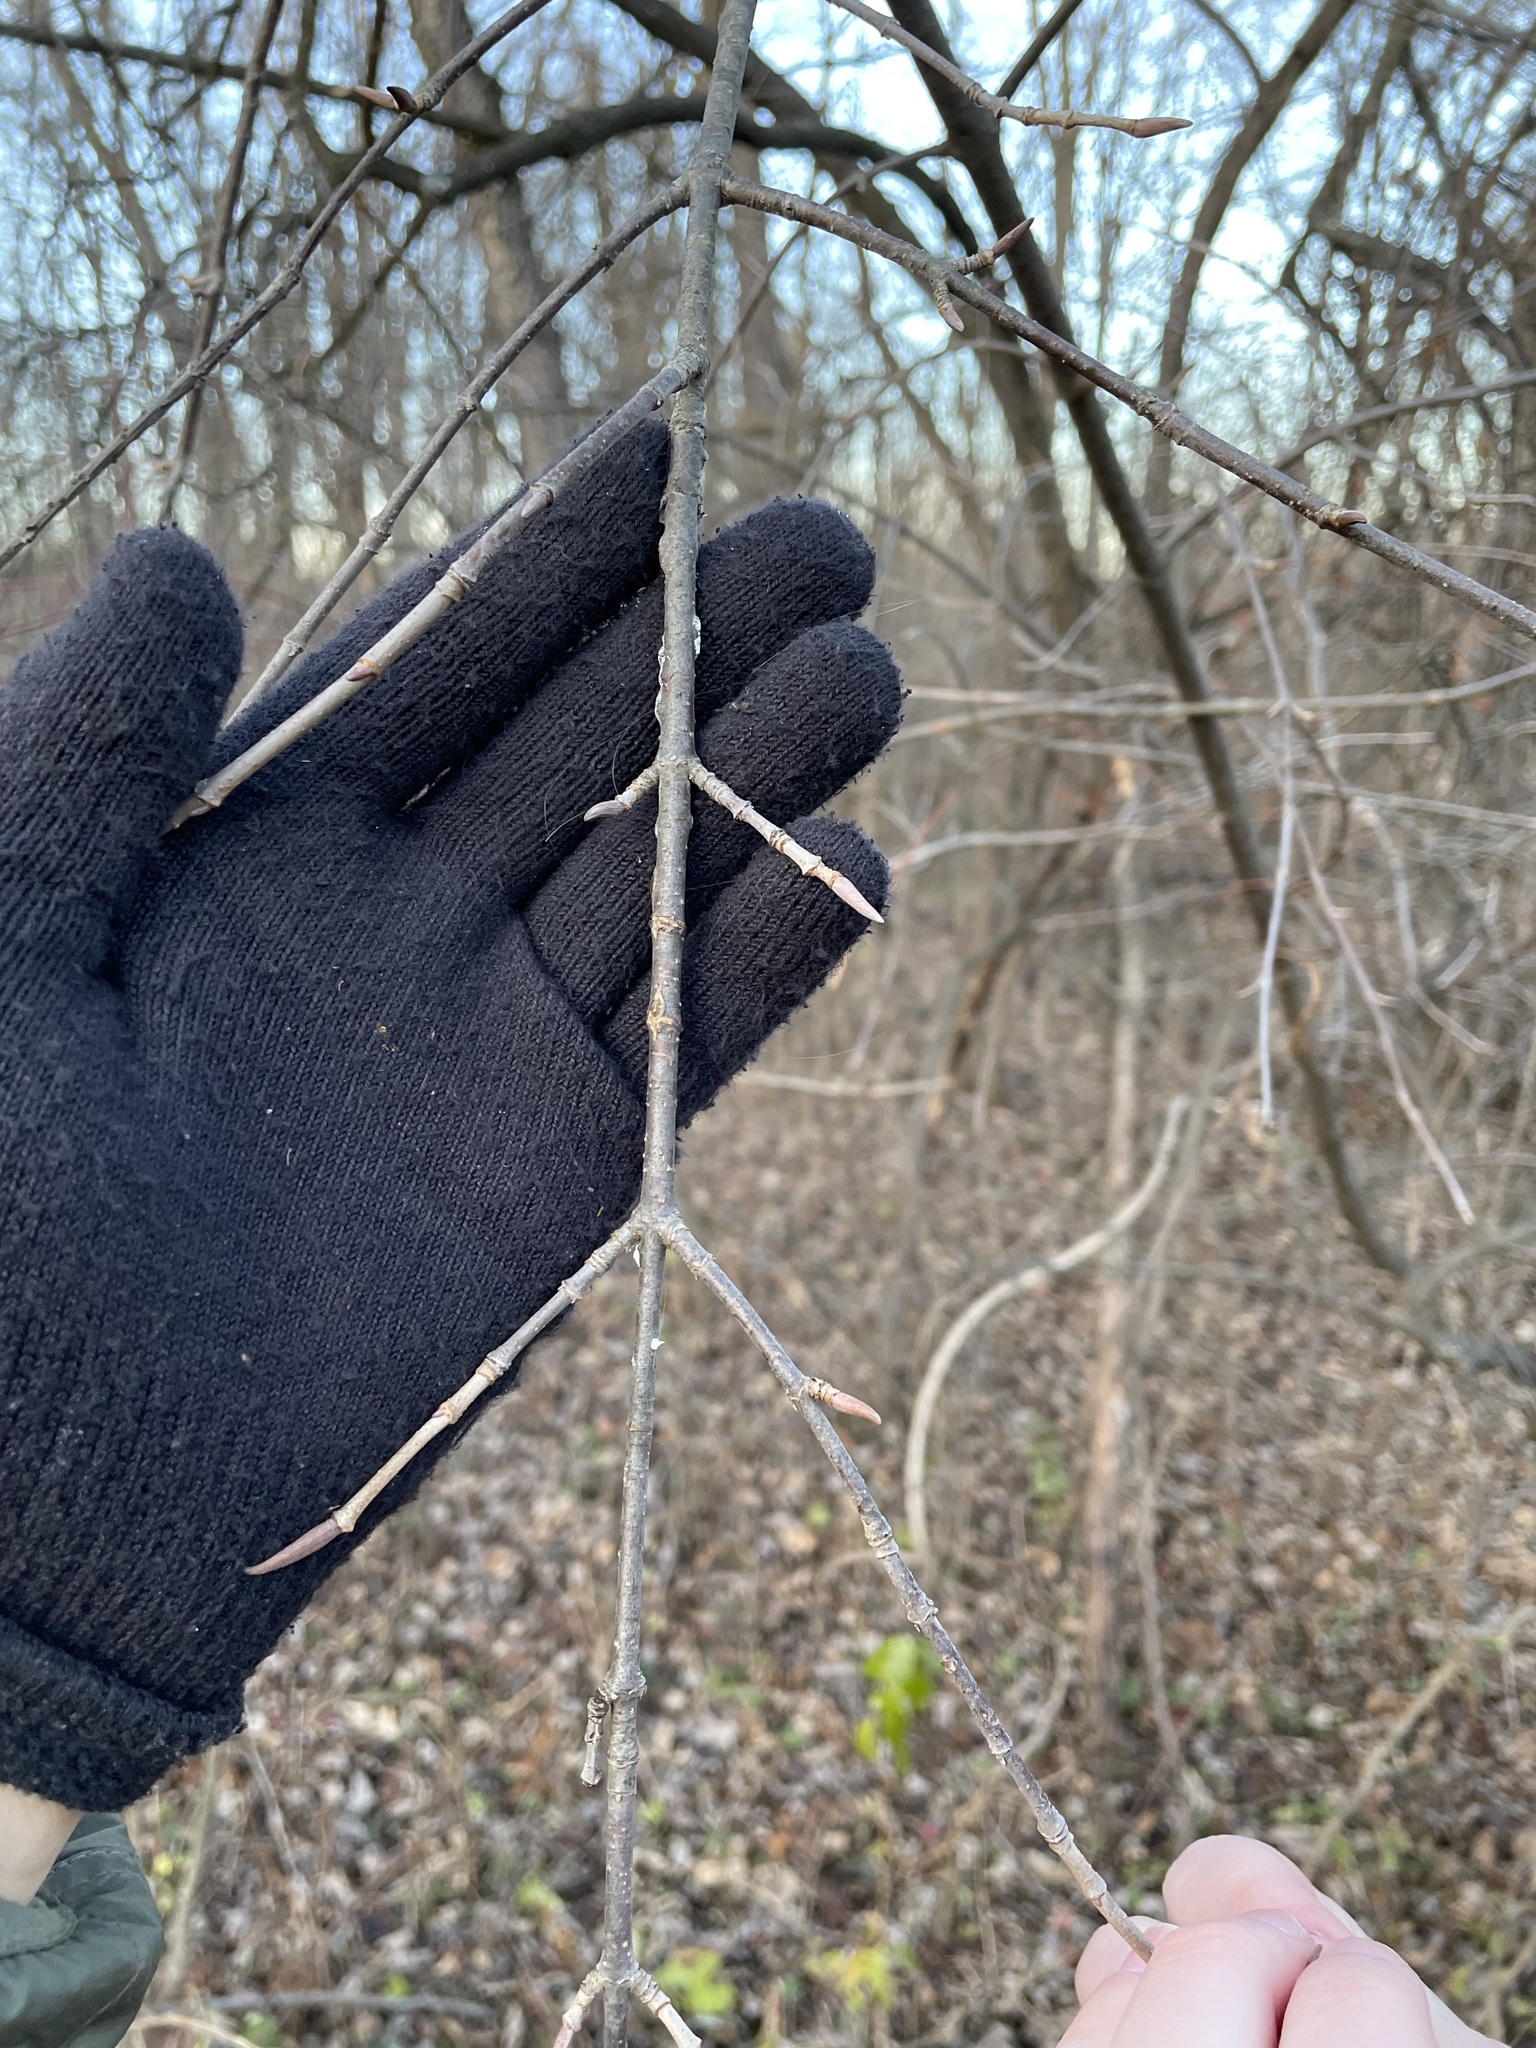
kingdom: Plantae
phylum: Tracheophyta
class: Magnoliopsida
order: Dipsacales
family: Viburnaceae
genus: Viburnum
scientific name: Viburnum lentago
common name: Black haw
